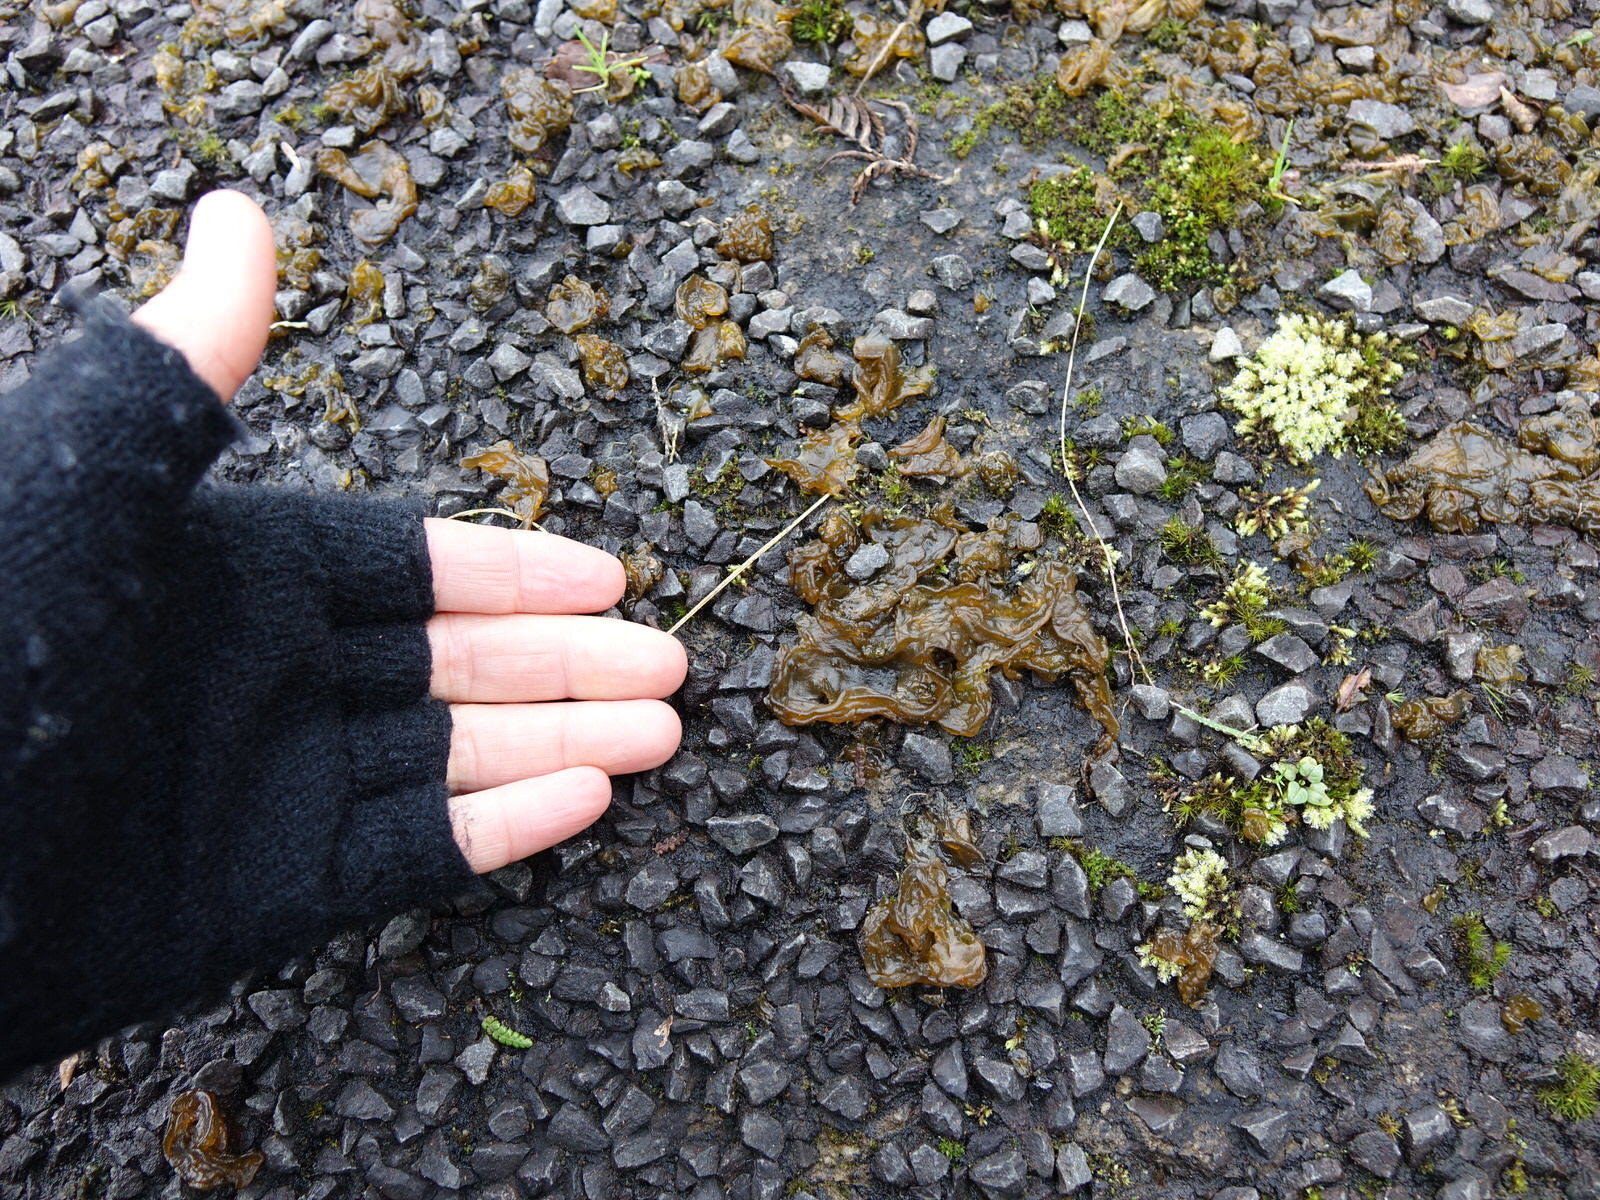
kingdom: Bacteria
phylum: Cyanobacteria
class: Cyanobacteriia
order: Cyanobacteriales
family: Nostocaceae
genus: Nostoc
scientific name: Nostoc commune
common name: Star jelly
